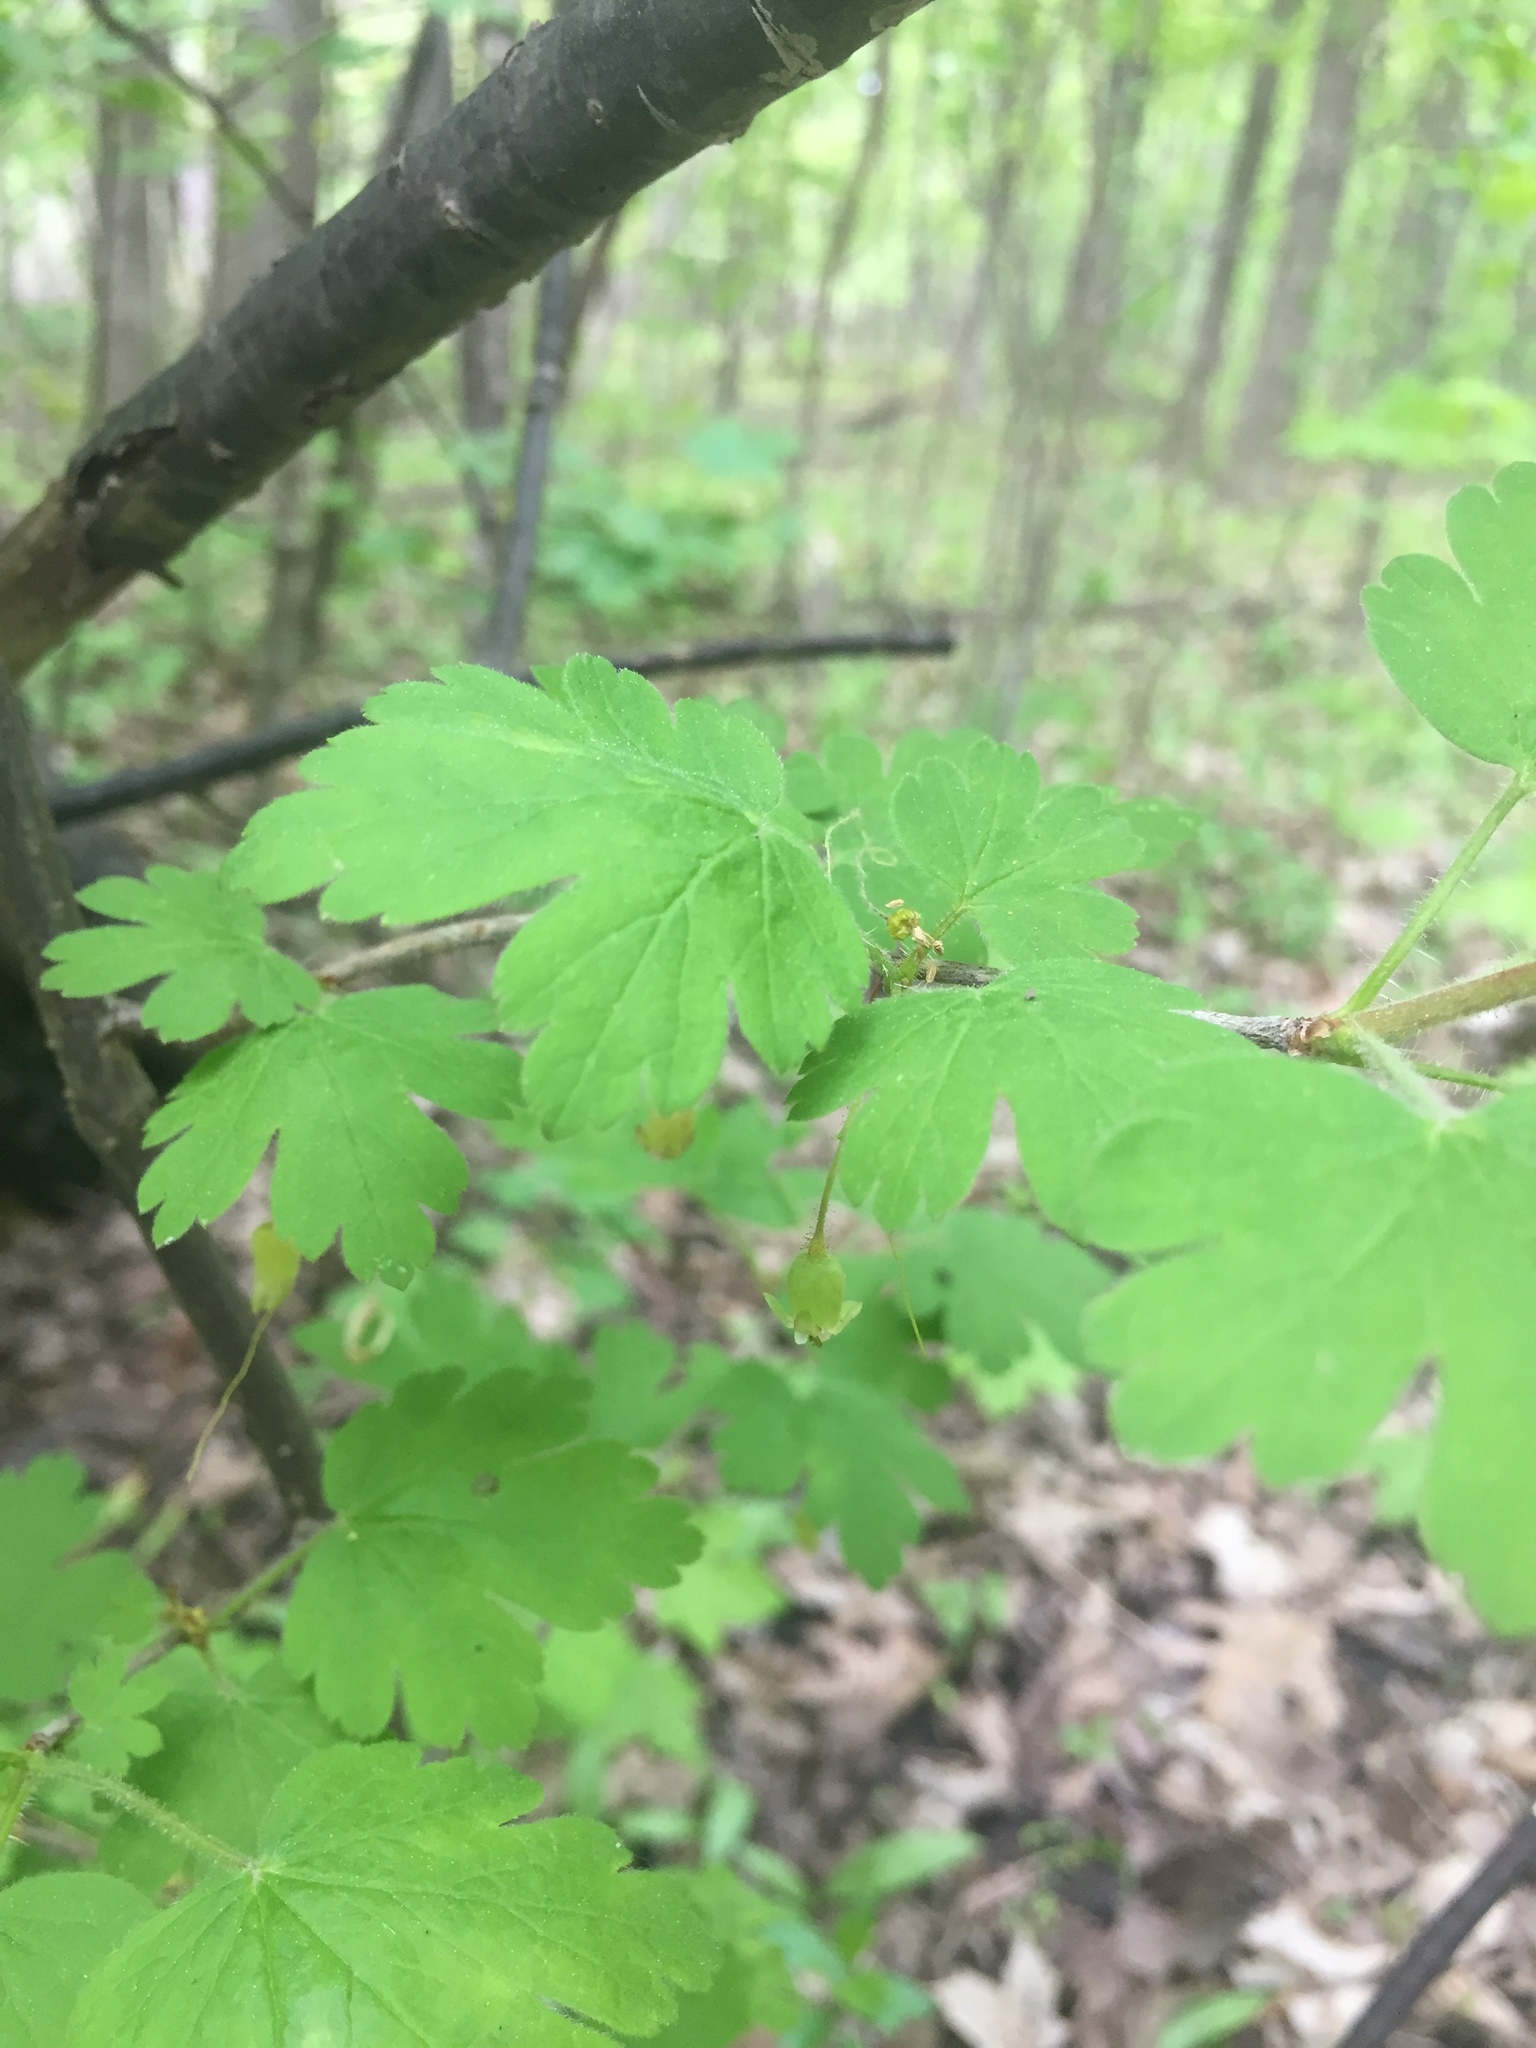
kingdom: Plantae
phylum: Tracheophyta
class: Magnoliopsida
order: Saxifragales
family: Grossulariaceae
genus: Ribes
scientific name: Ribes cynosbati
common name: American gooseberry
